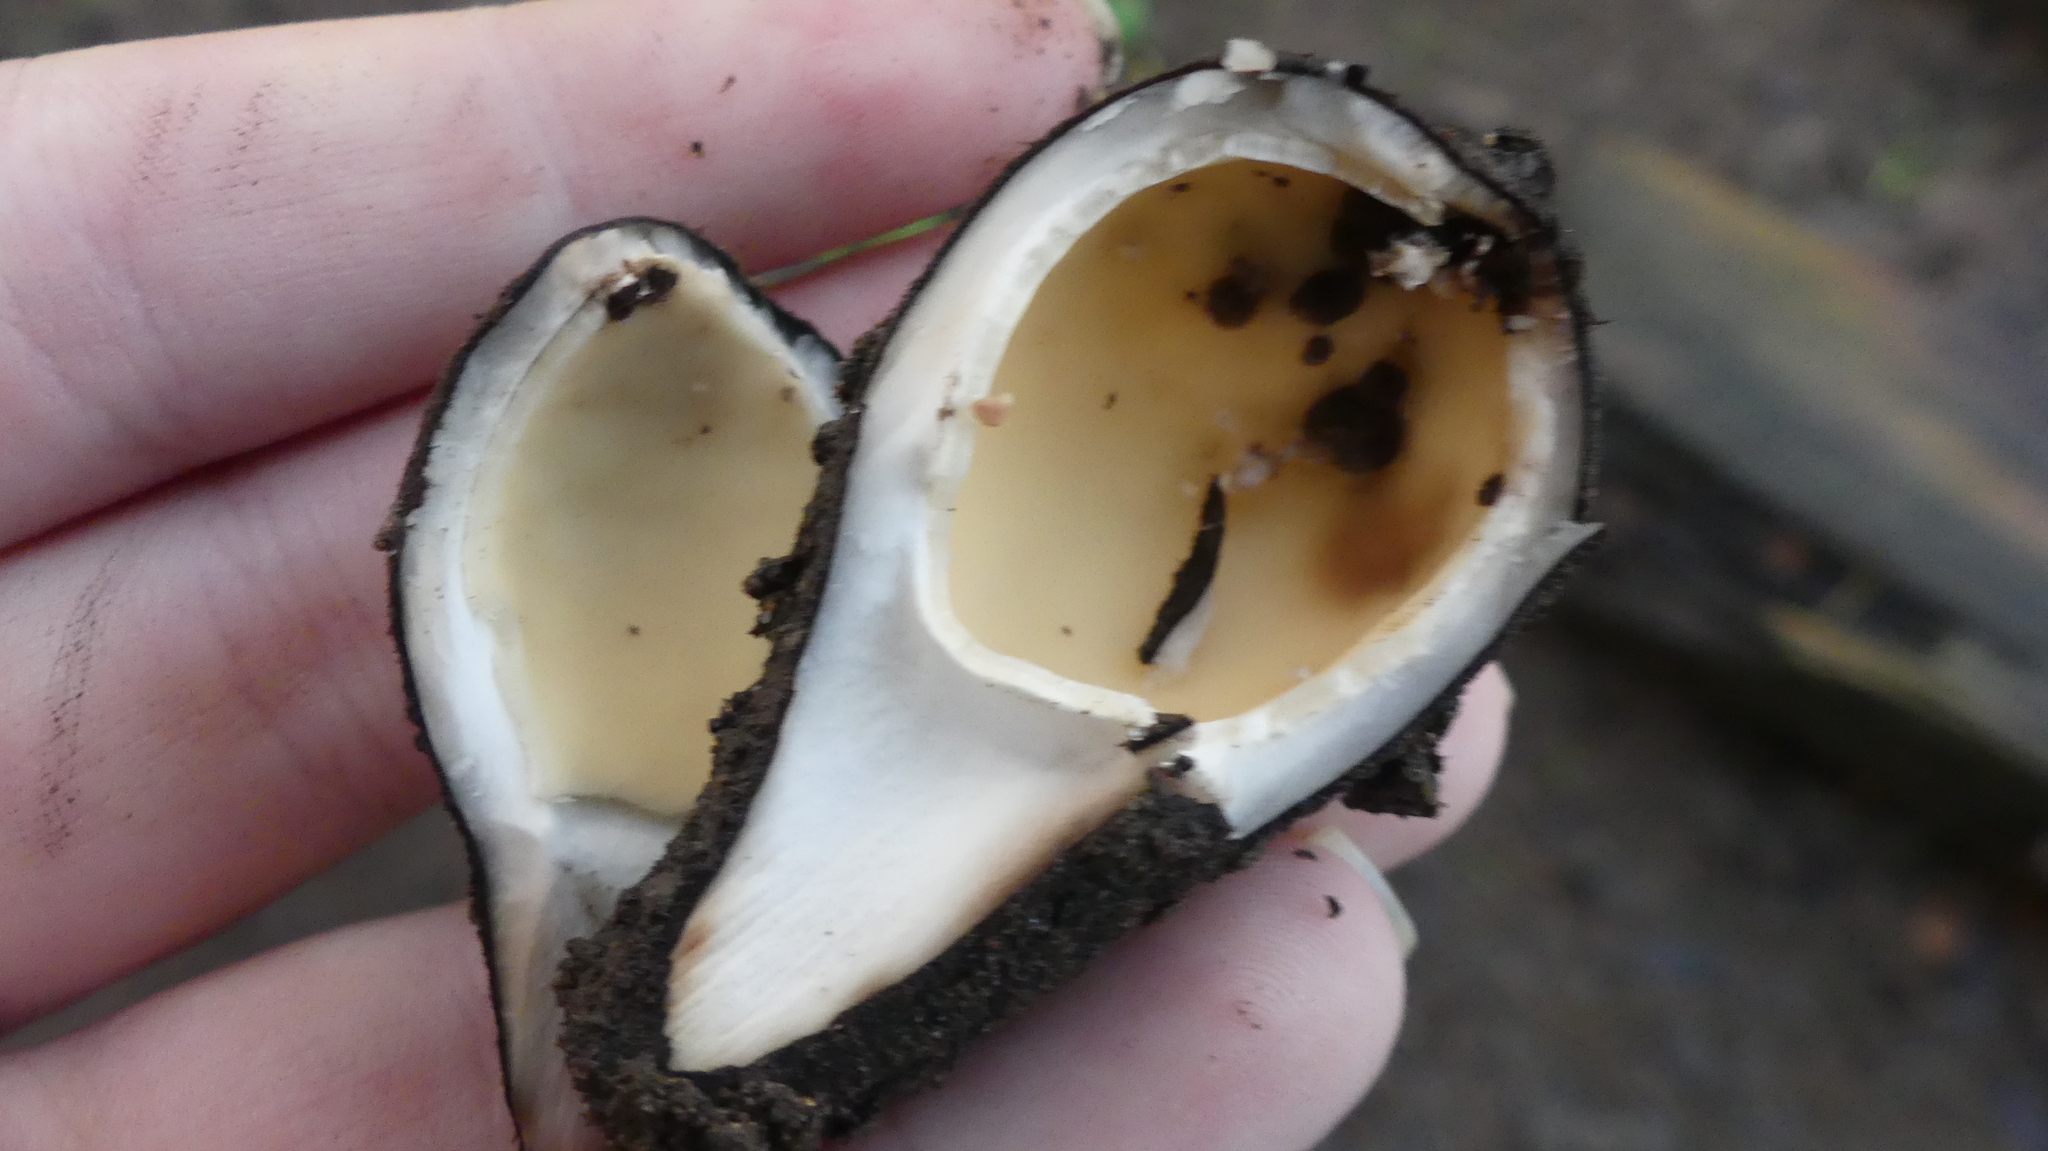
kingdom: Fungi
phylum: Ascomycota
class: Pezizomycetes
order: Pezizales
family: Chorioactidaceae
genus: Chorioactis
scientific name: Chorioactis geaster
